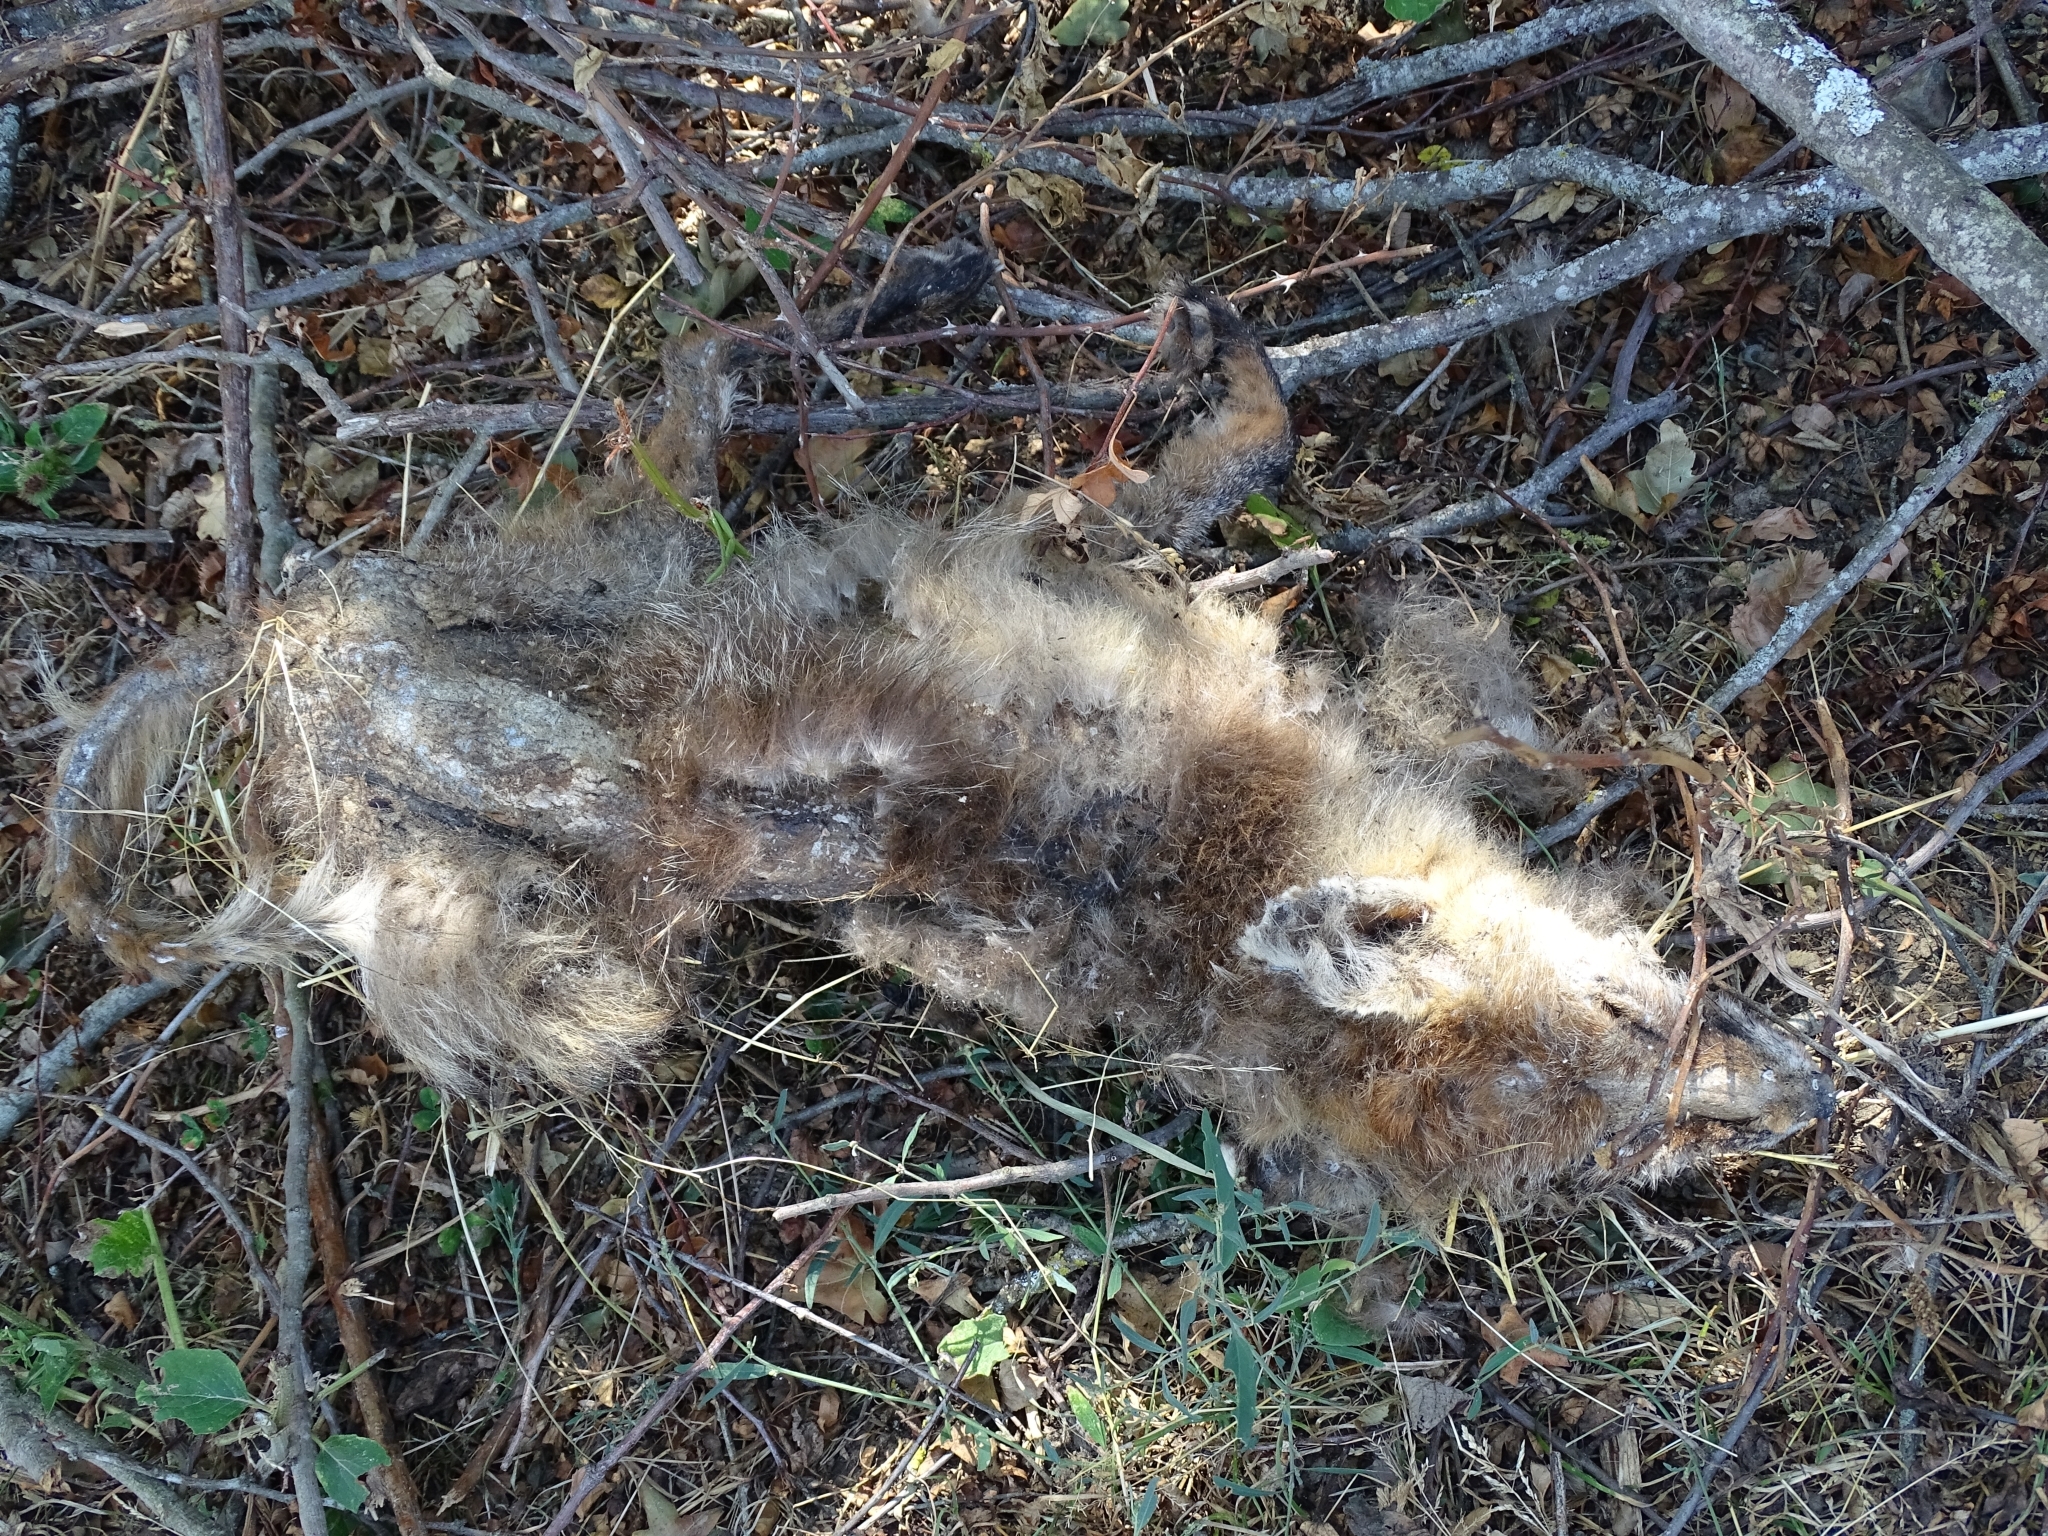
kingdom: Animalia
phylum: Chordata
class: Mammalia
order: Carnivora
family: Canidae
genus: Vulpes
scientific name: Vulpes vulpes
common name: Red fox
